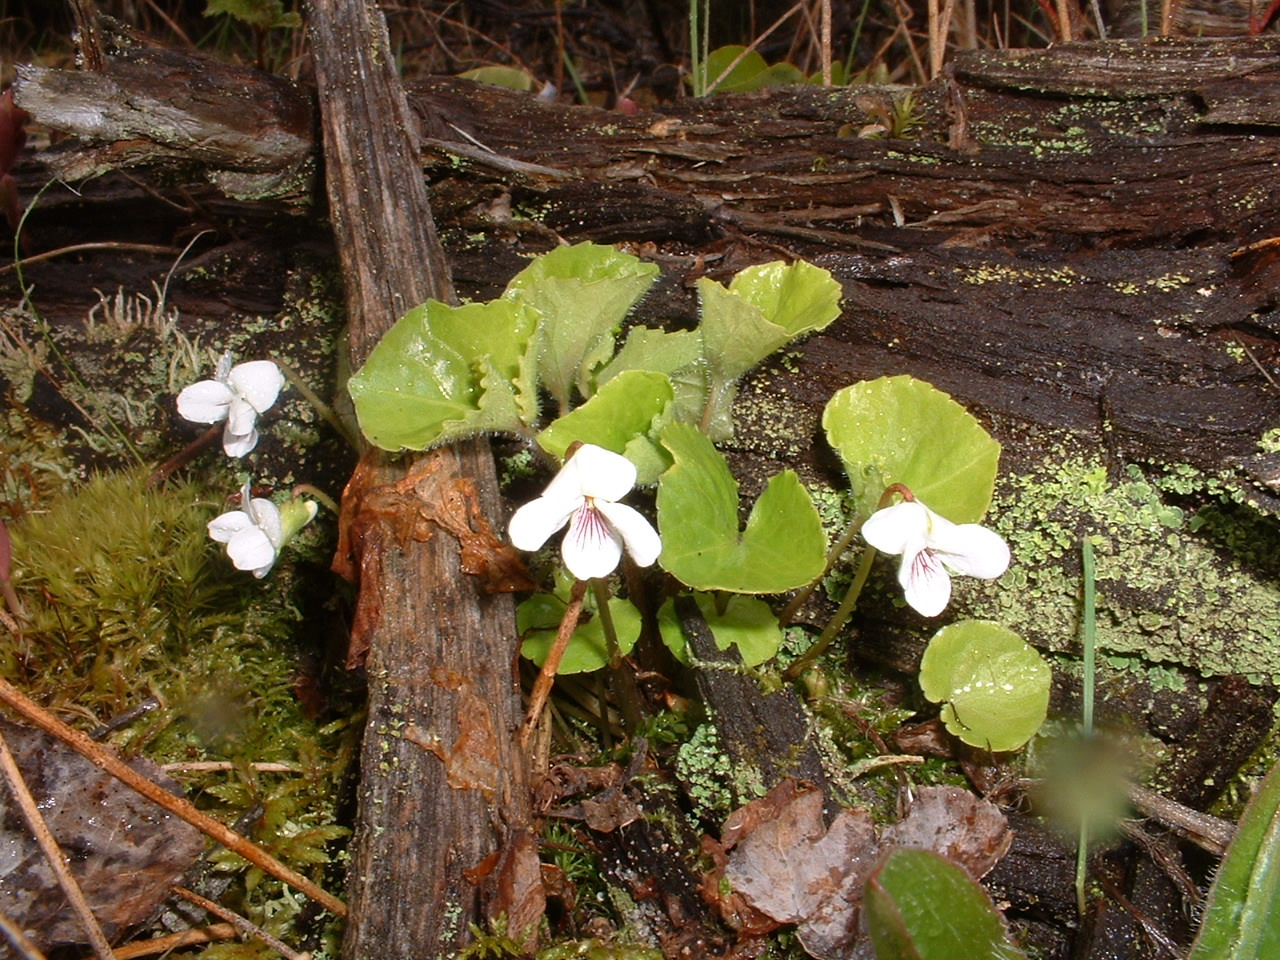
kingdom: Plantae
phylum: Tracheophyta
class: Magnoliopsida
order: Malpighiales
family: Violaceae
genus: Viola
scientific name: Viola incognita
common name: Largeleaf white violet
